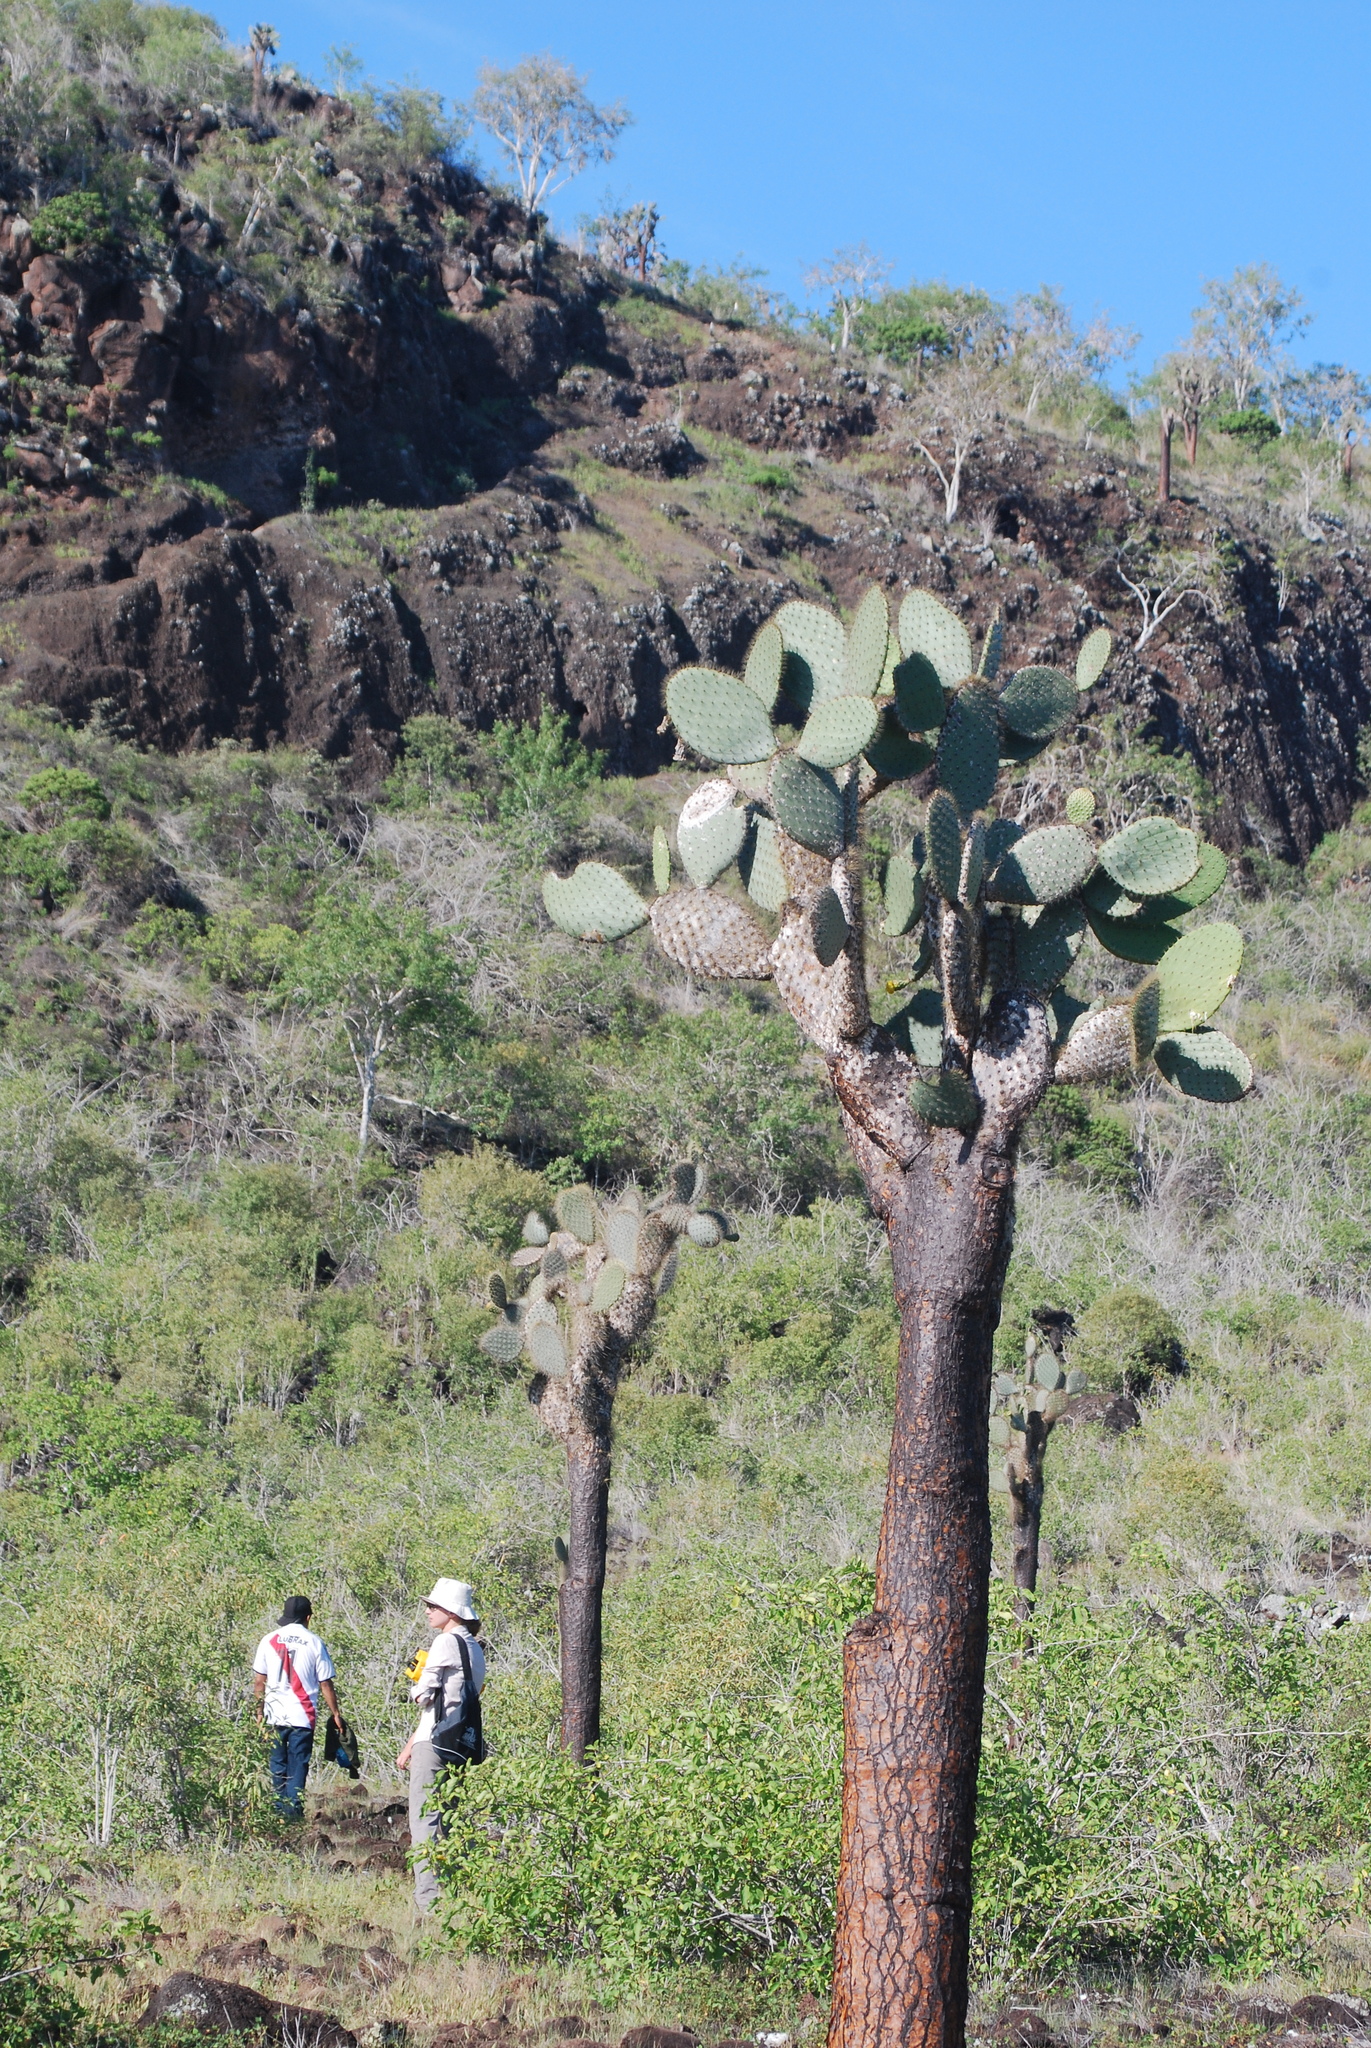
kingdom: Plantae
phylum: Tracheophyta
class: Magnoliopsida
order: Caryophyllales
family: Cactaceae
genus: Opuntia
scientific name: Opuntia galapageia
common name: Galápagos prickly pear
